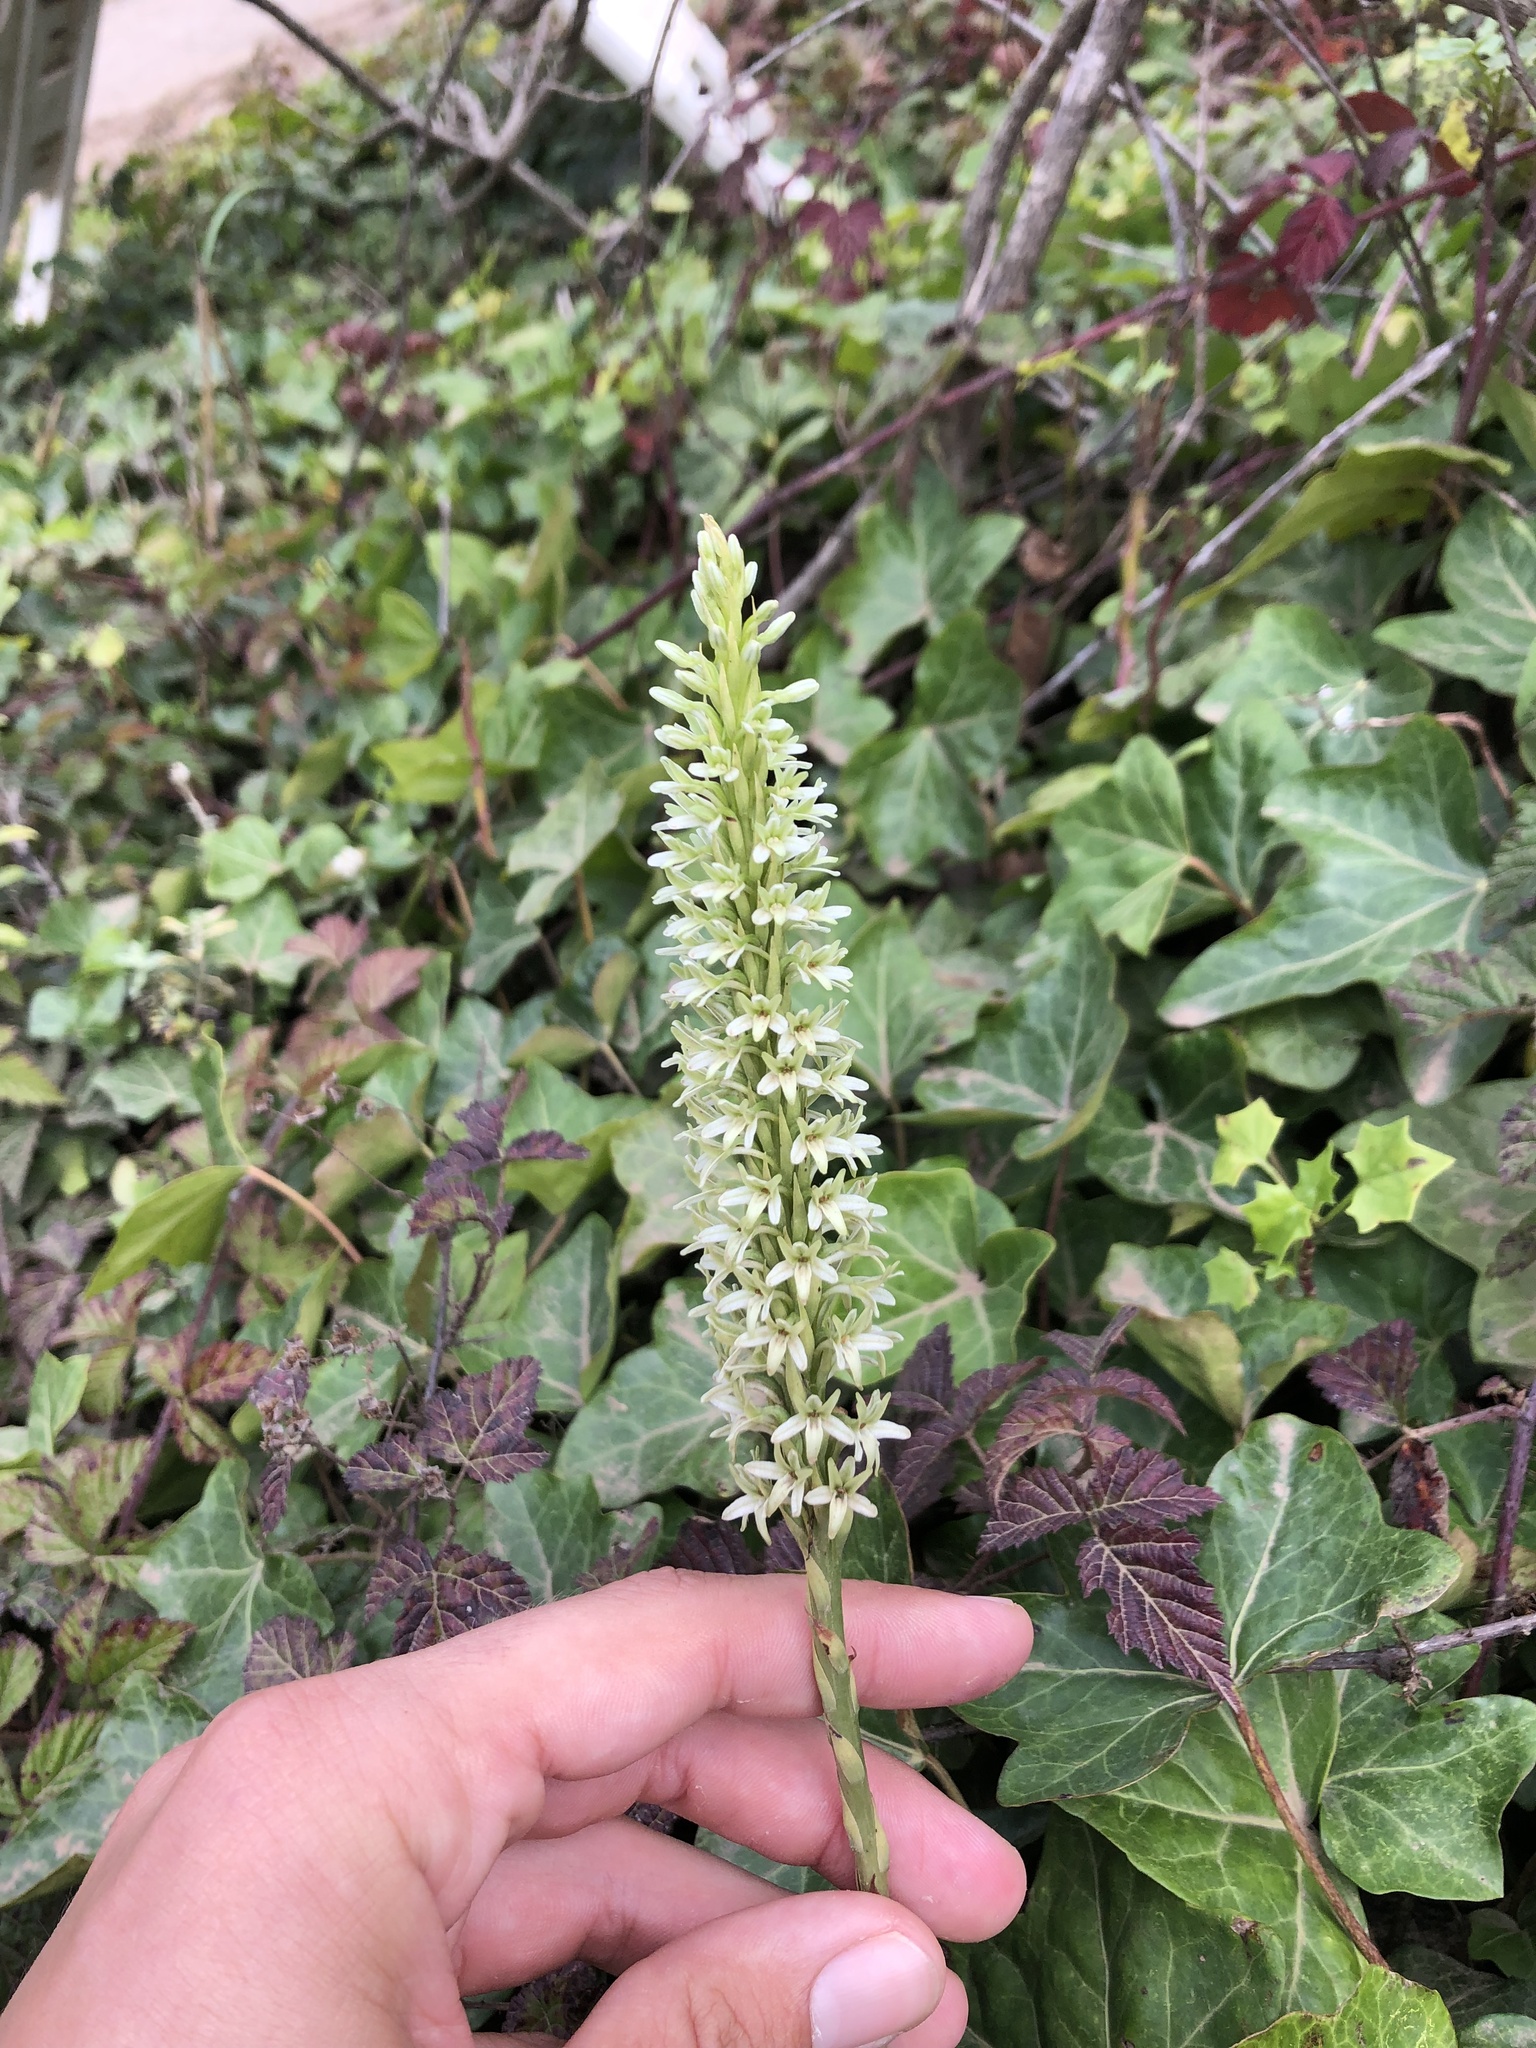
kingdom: Plantae
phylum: Tracheophyta
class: Liliopsida
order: Asparagales
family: Orchidaceae
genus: Platanthera
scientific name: Platanthera elegans
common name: Coast piperia
